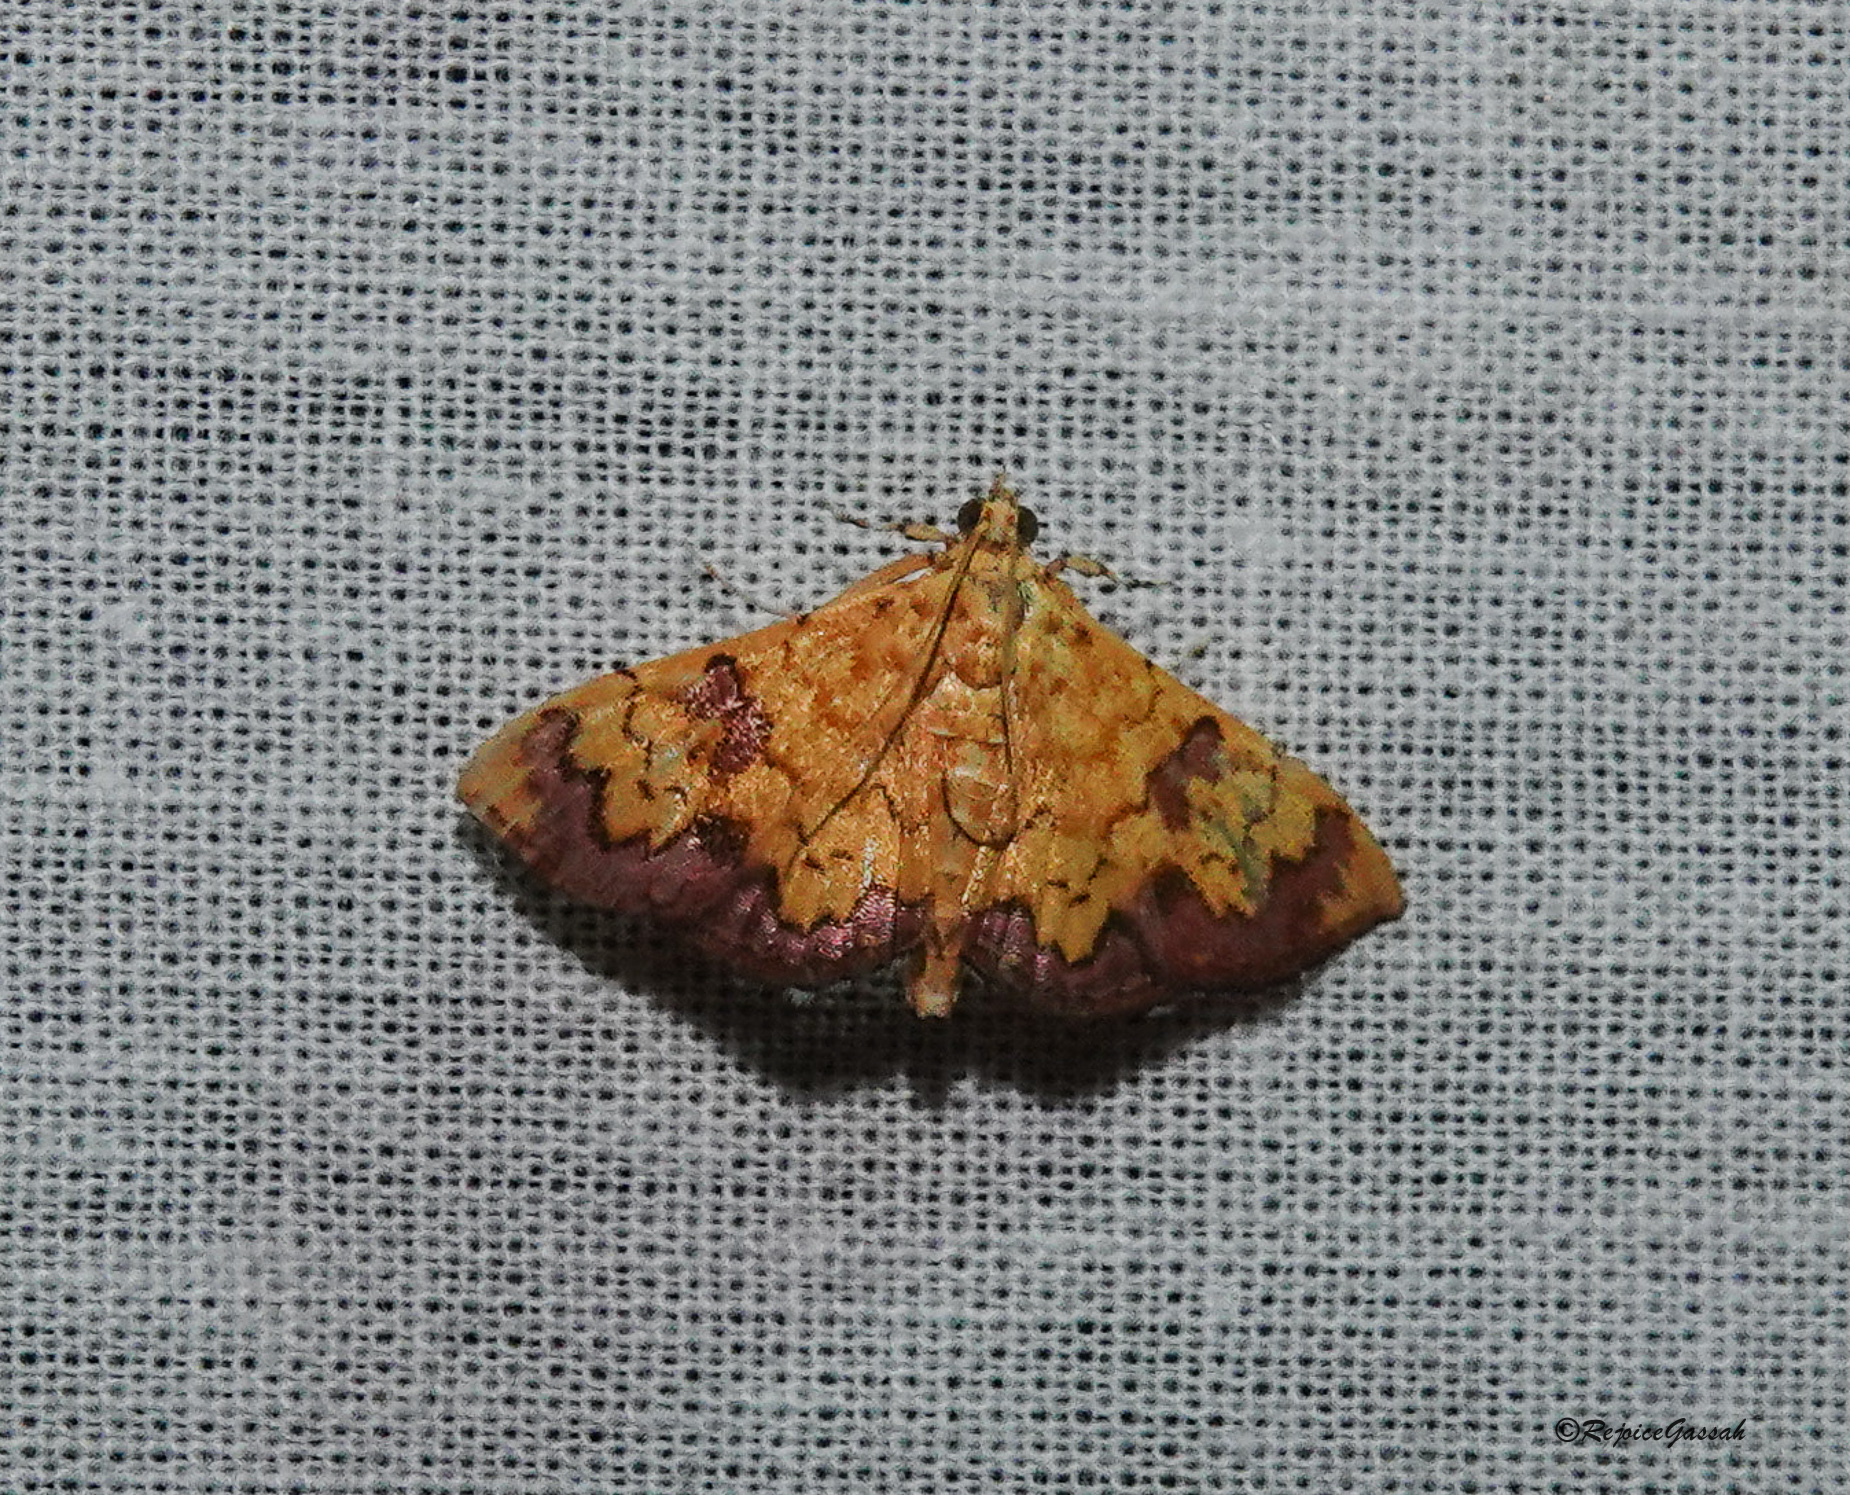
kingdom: Animalia
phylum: Arthropoda
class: Insecta
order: Lepidoptera
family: Crambidae
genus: Isocentris
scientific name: Isocentris filalis
